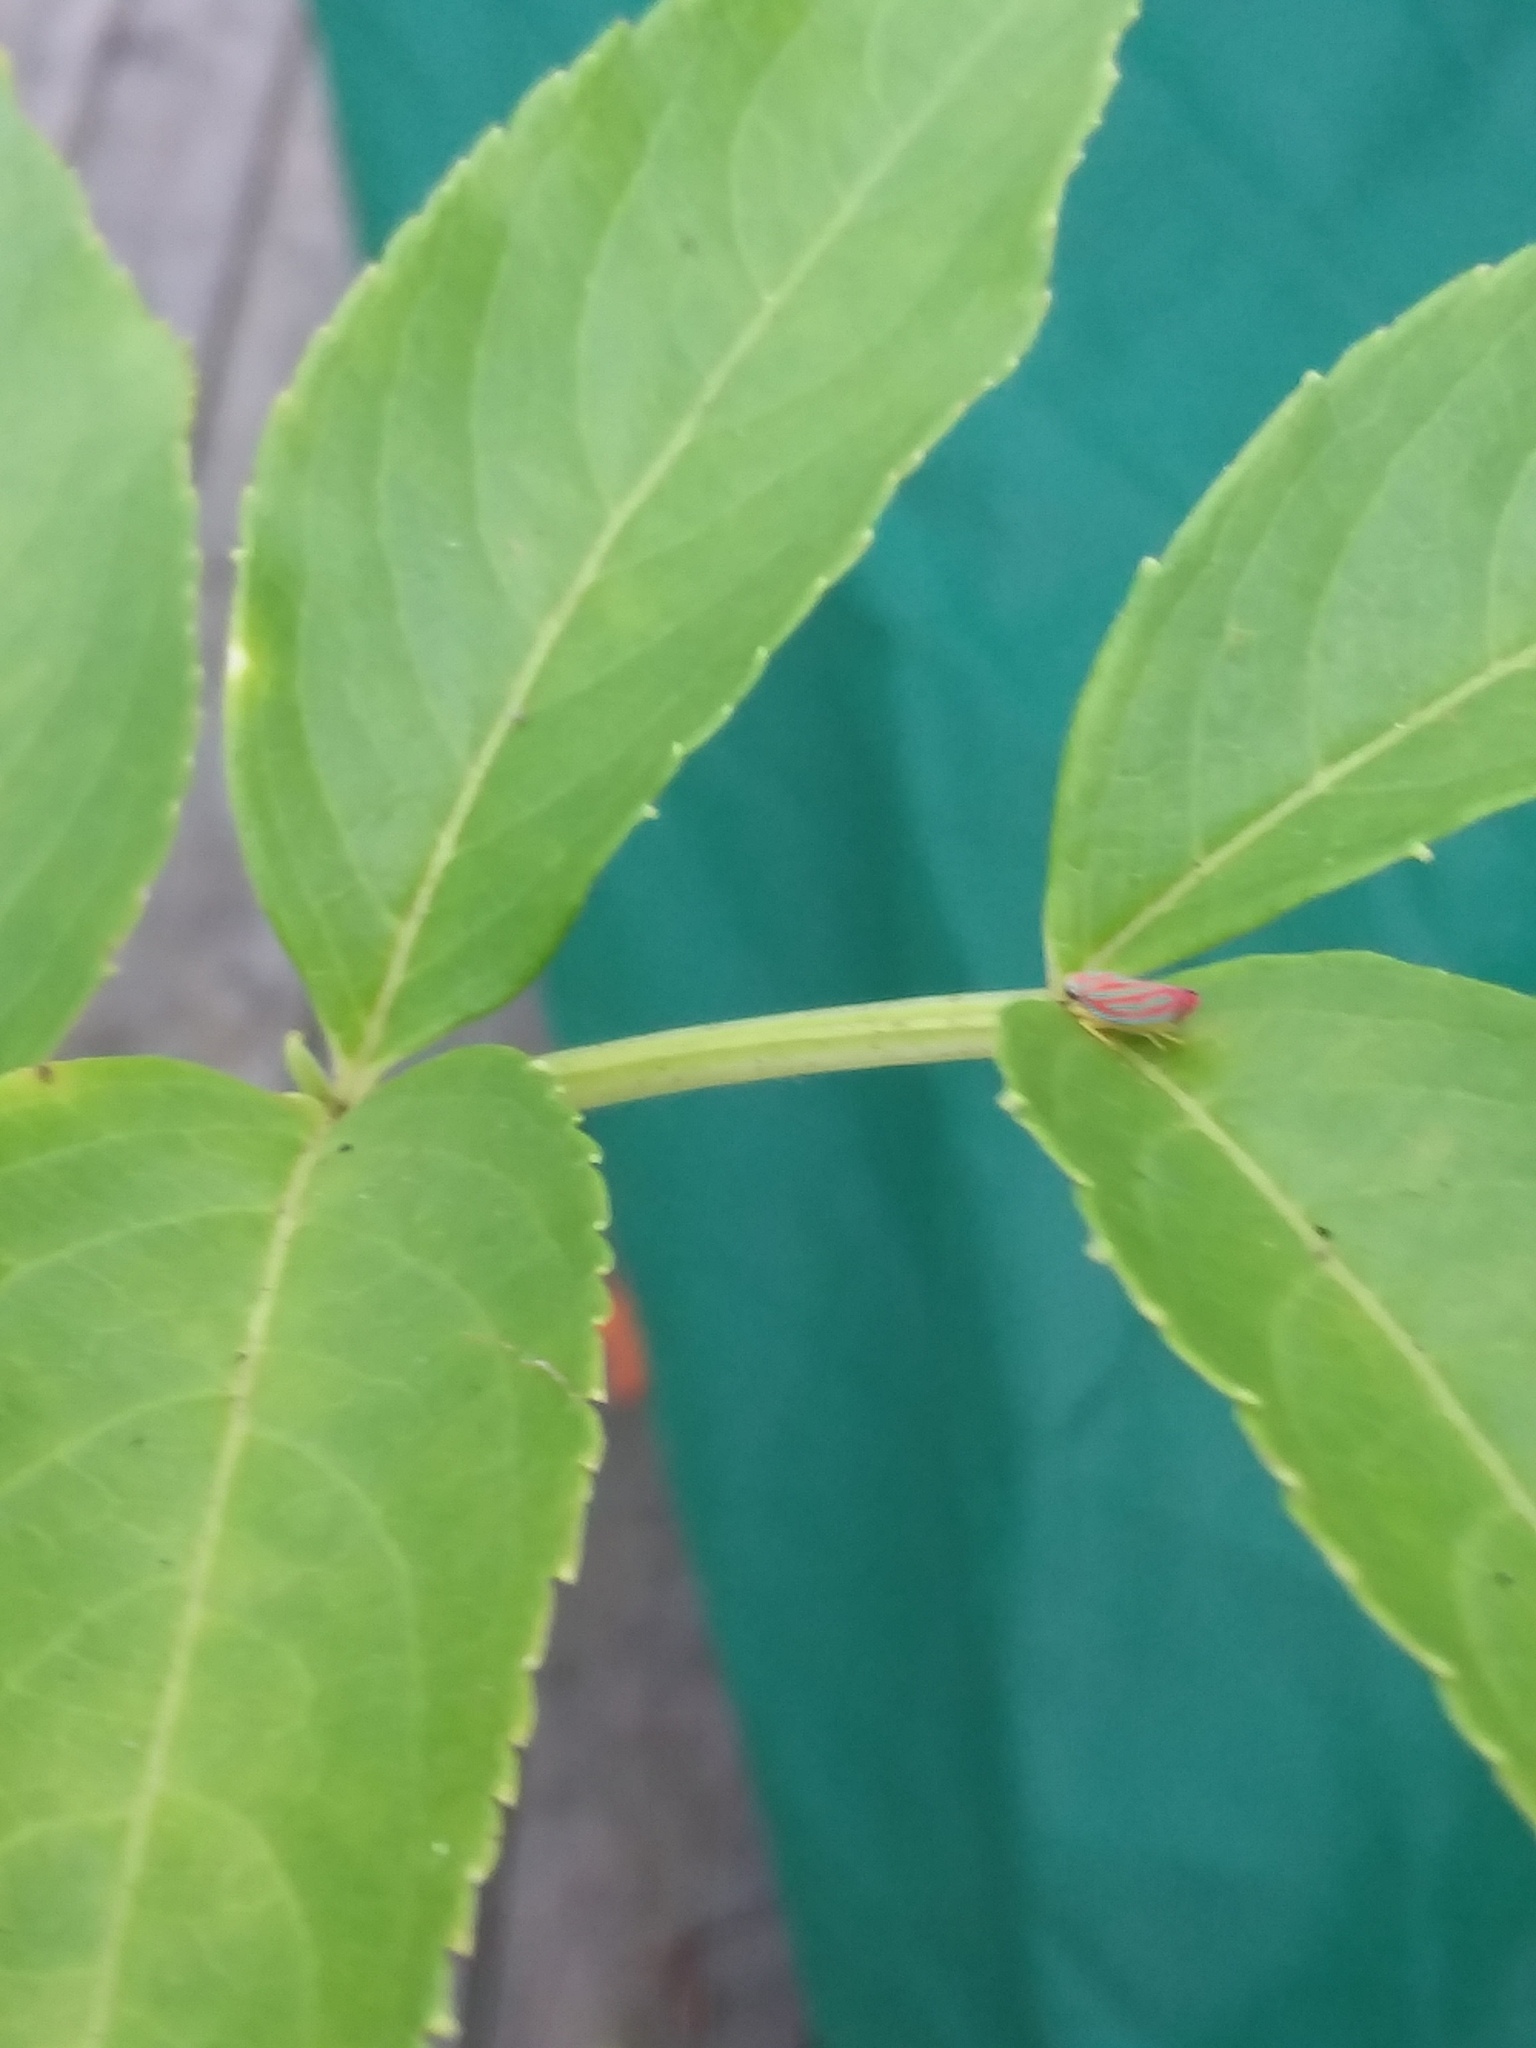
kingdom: Animalia
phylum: Arthropoda
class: Insecta
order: Hemiptera
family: Cicadellidae
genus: Graphocephala
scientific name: Graphocephala coccinea
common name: Candy-striped leafhopper
